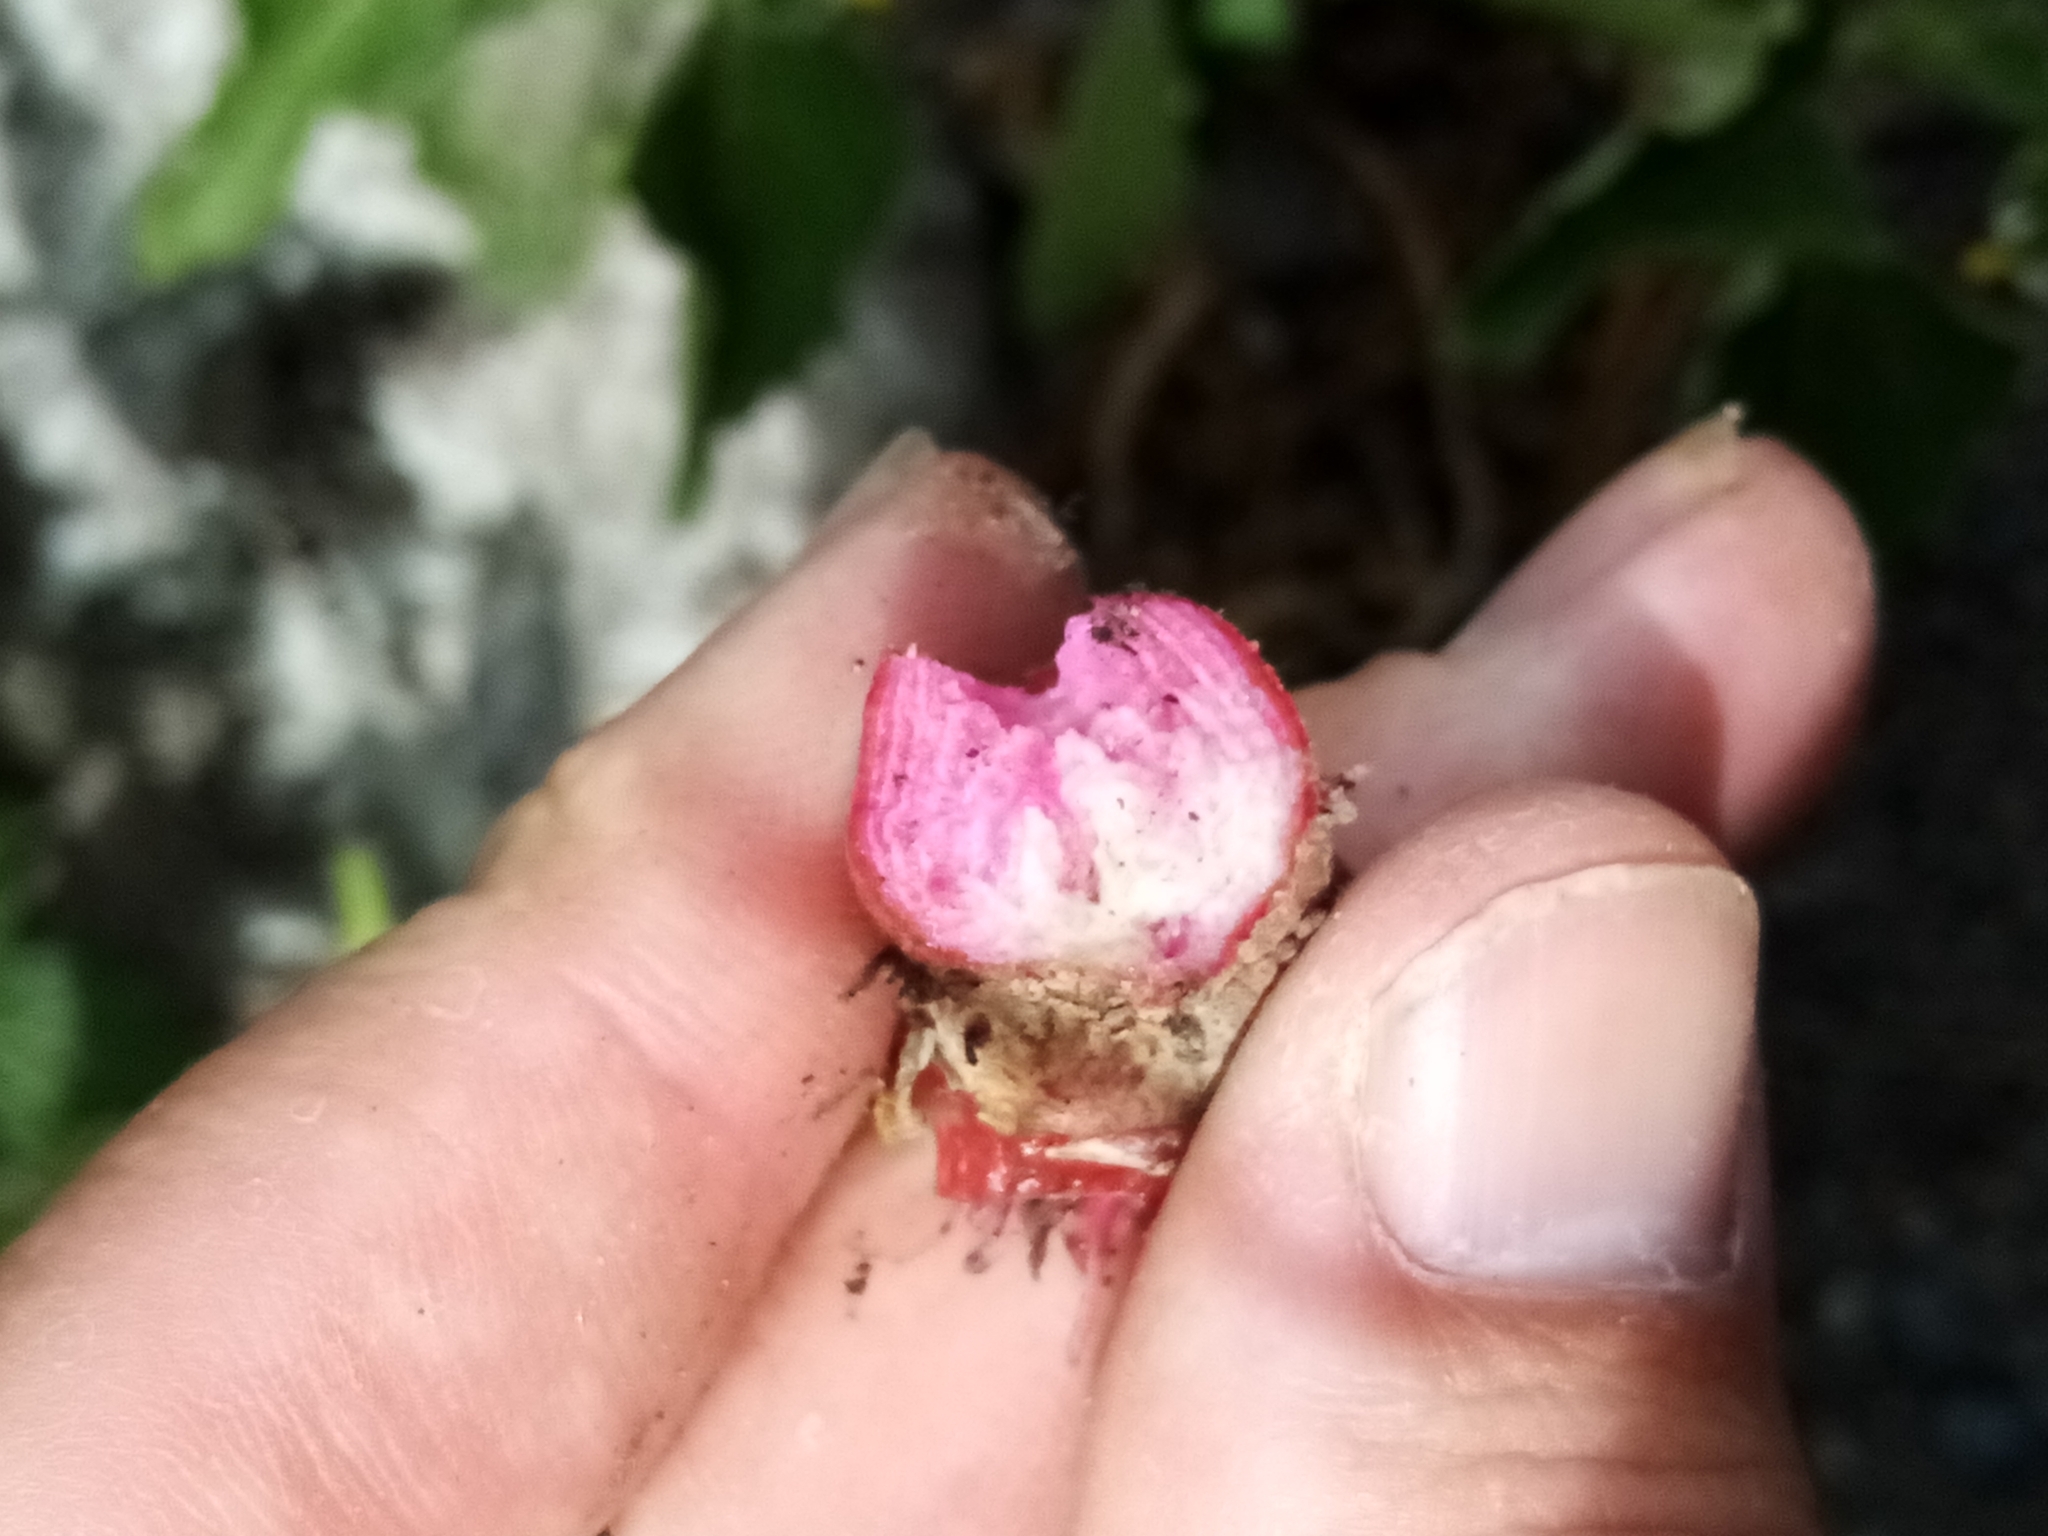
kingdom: Plantae
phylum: Tracheophyta
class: Magnoliopsida
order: Caryophyllales
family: Amaranthaceae
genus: Beta
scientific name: Beta vulgaris
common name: Beet
